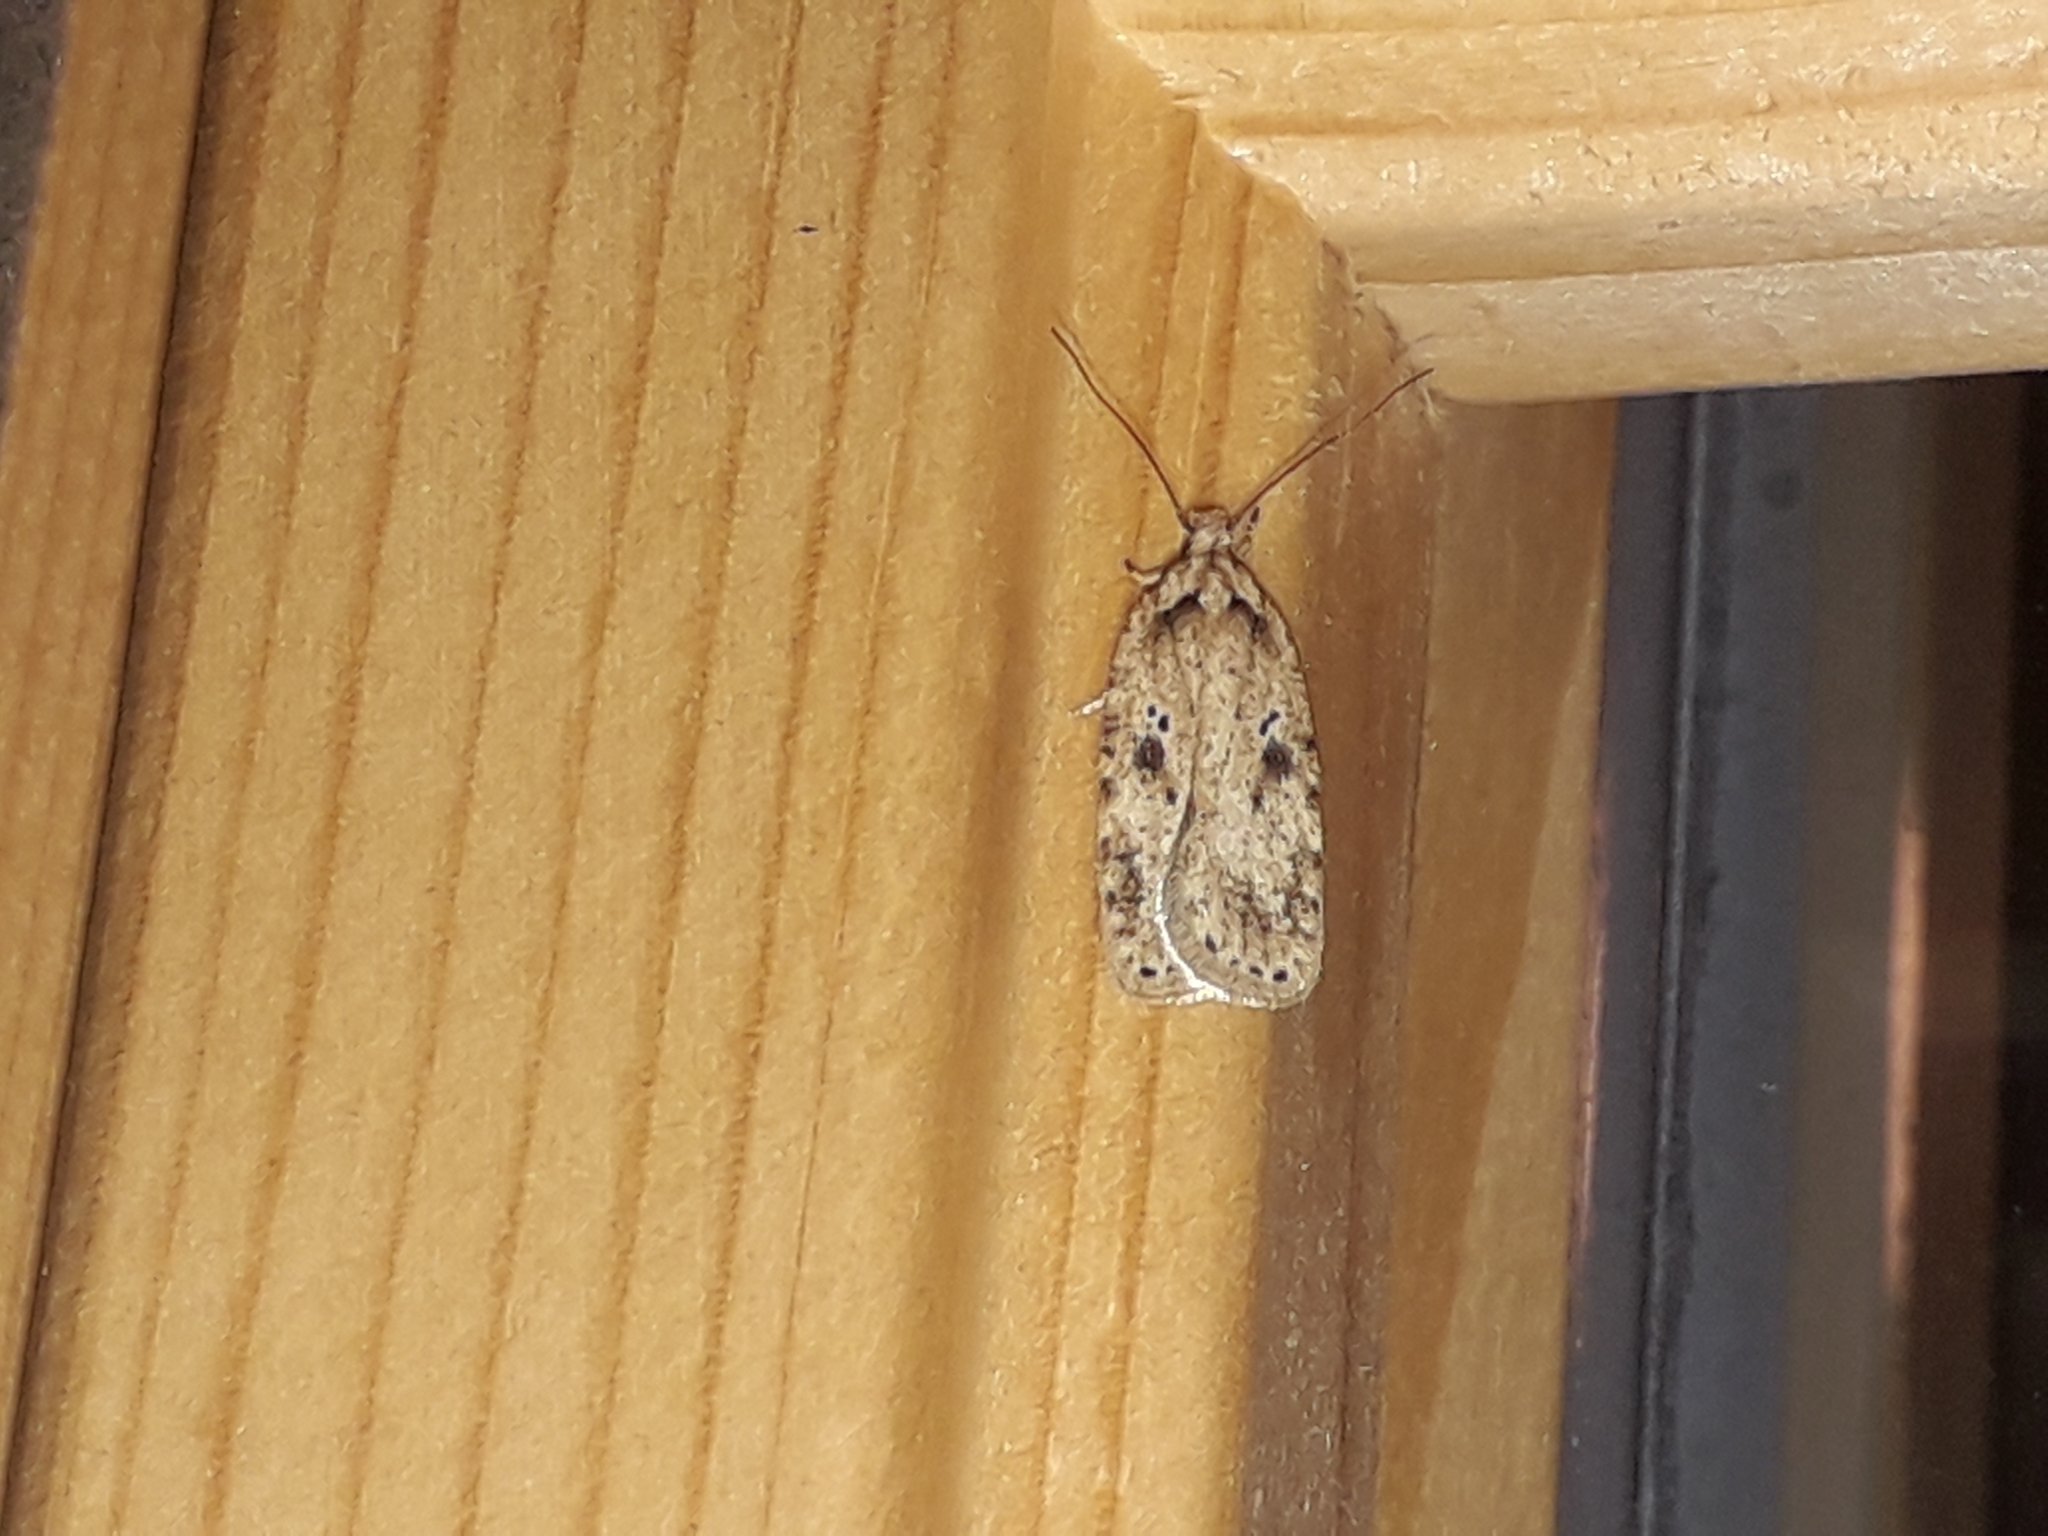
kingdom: Animalia
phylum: Arthropoda
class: Insecta
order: Lepidoptera
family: Depressariidae
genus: Agonopterix
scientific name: Agonopterix arenella
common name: Brindled flat-body
